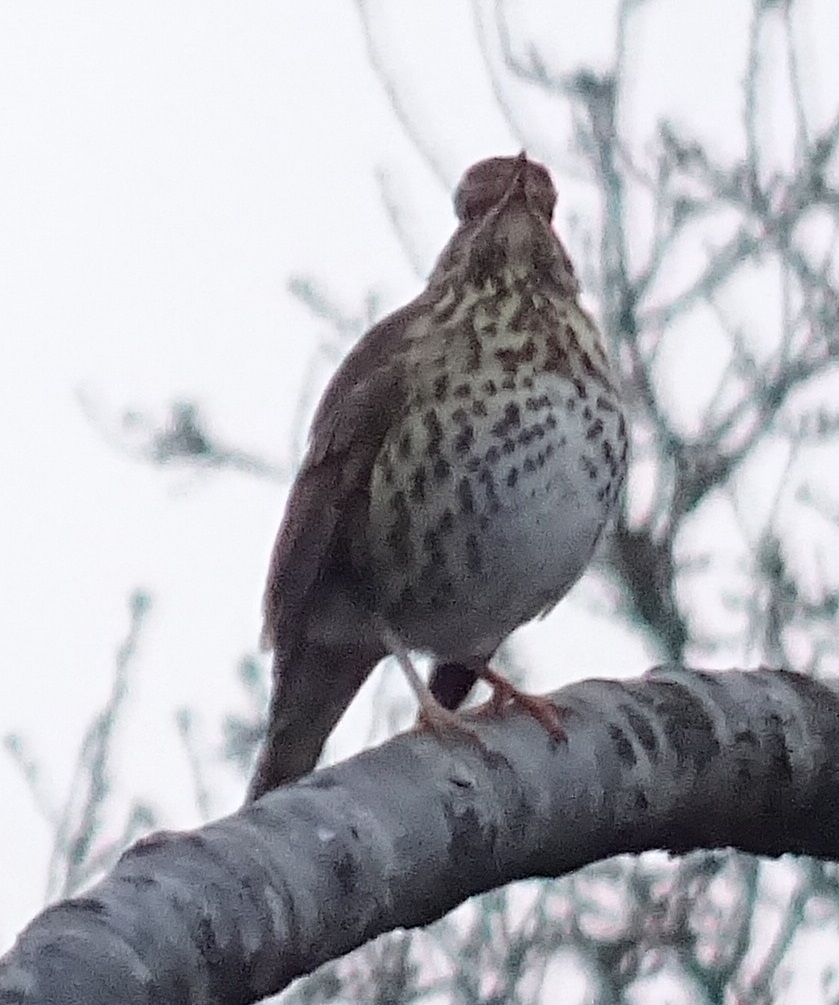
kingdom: Animalia
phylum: Chordata
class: Aves
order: Passeriformes
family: Turdidae
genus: Turdus
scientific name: Turdus philomelos
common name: Song thrush
